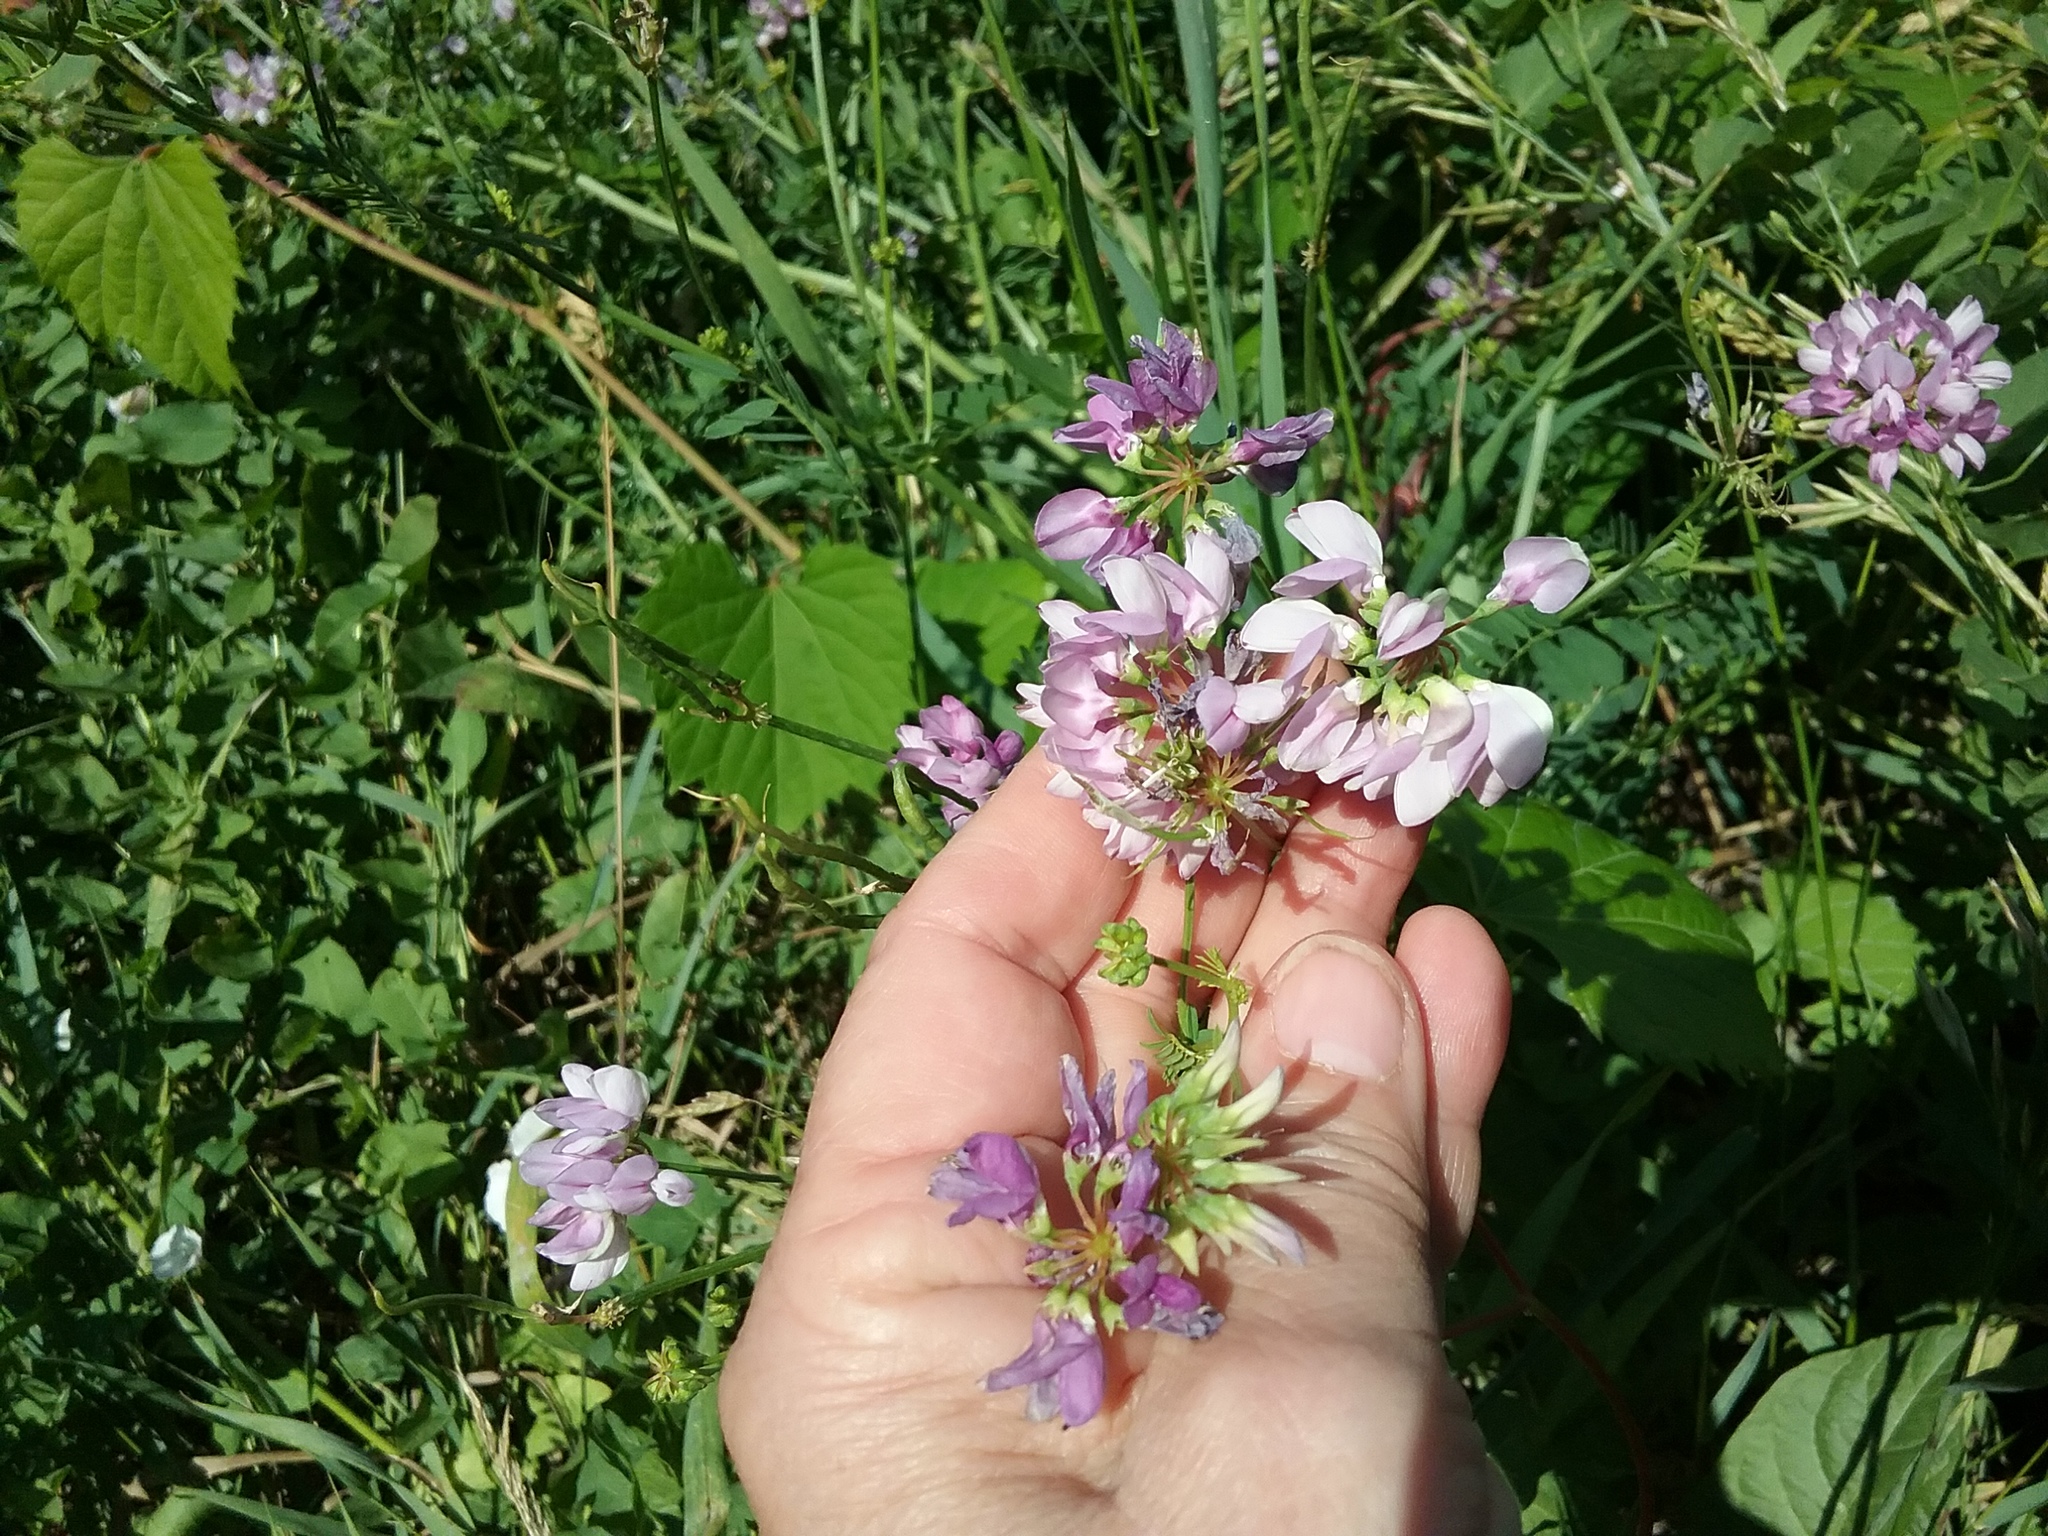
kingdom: Plantae
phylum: Tracheophyta
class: Magnoliopsida
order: Fabales
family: Fabaceae
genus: Coronilla
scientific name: Coronilla varia
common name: Crownvetch
